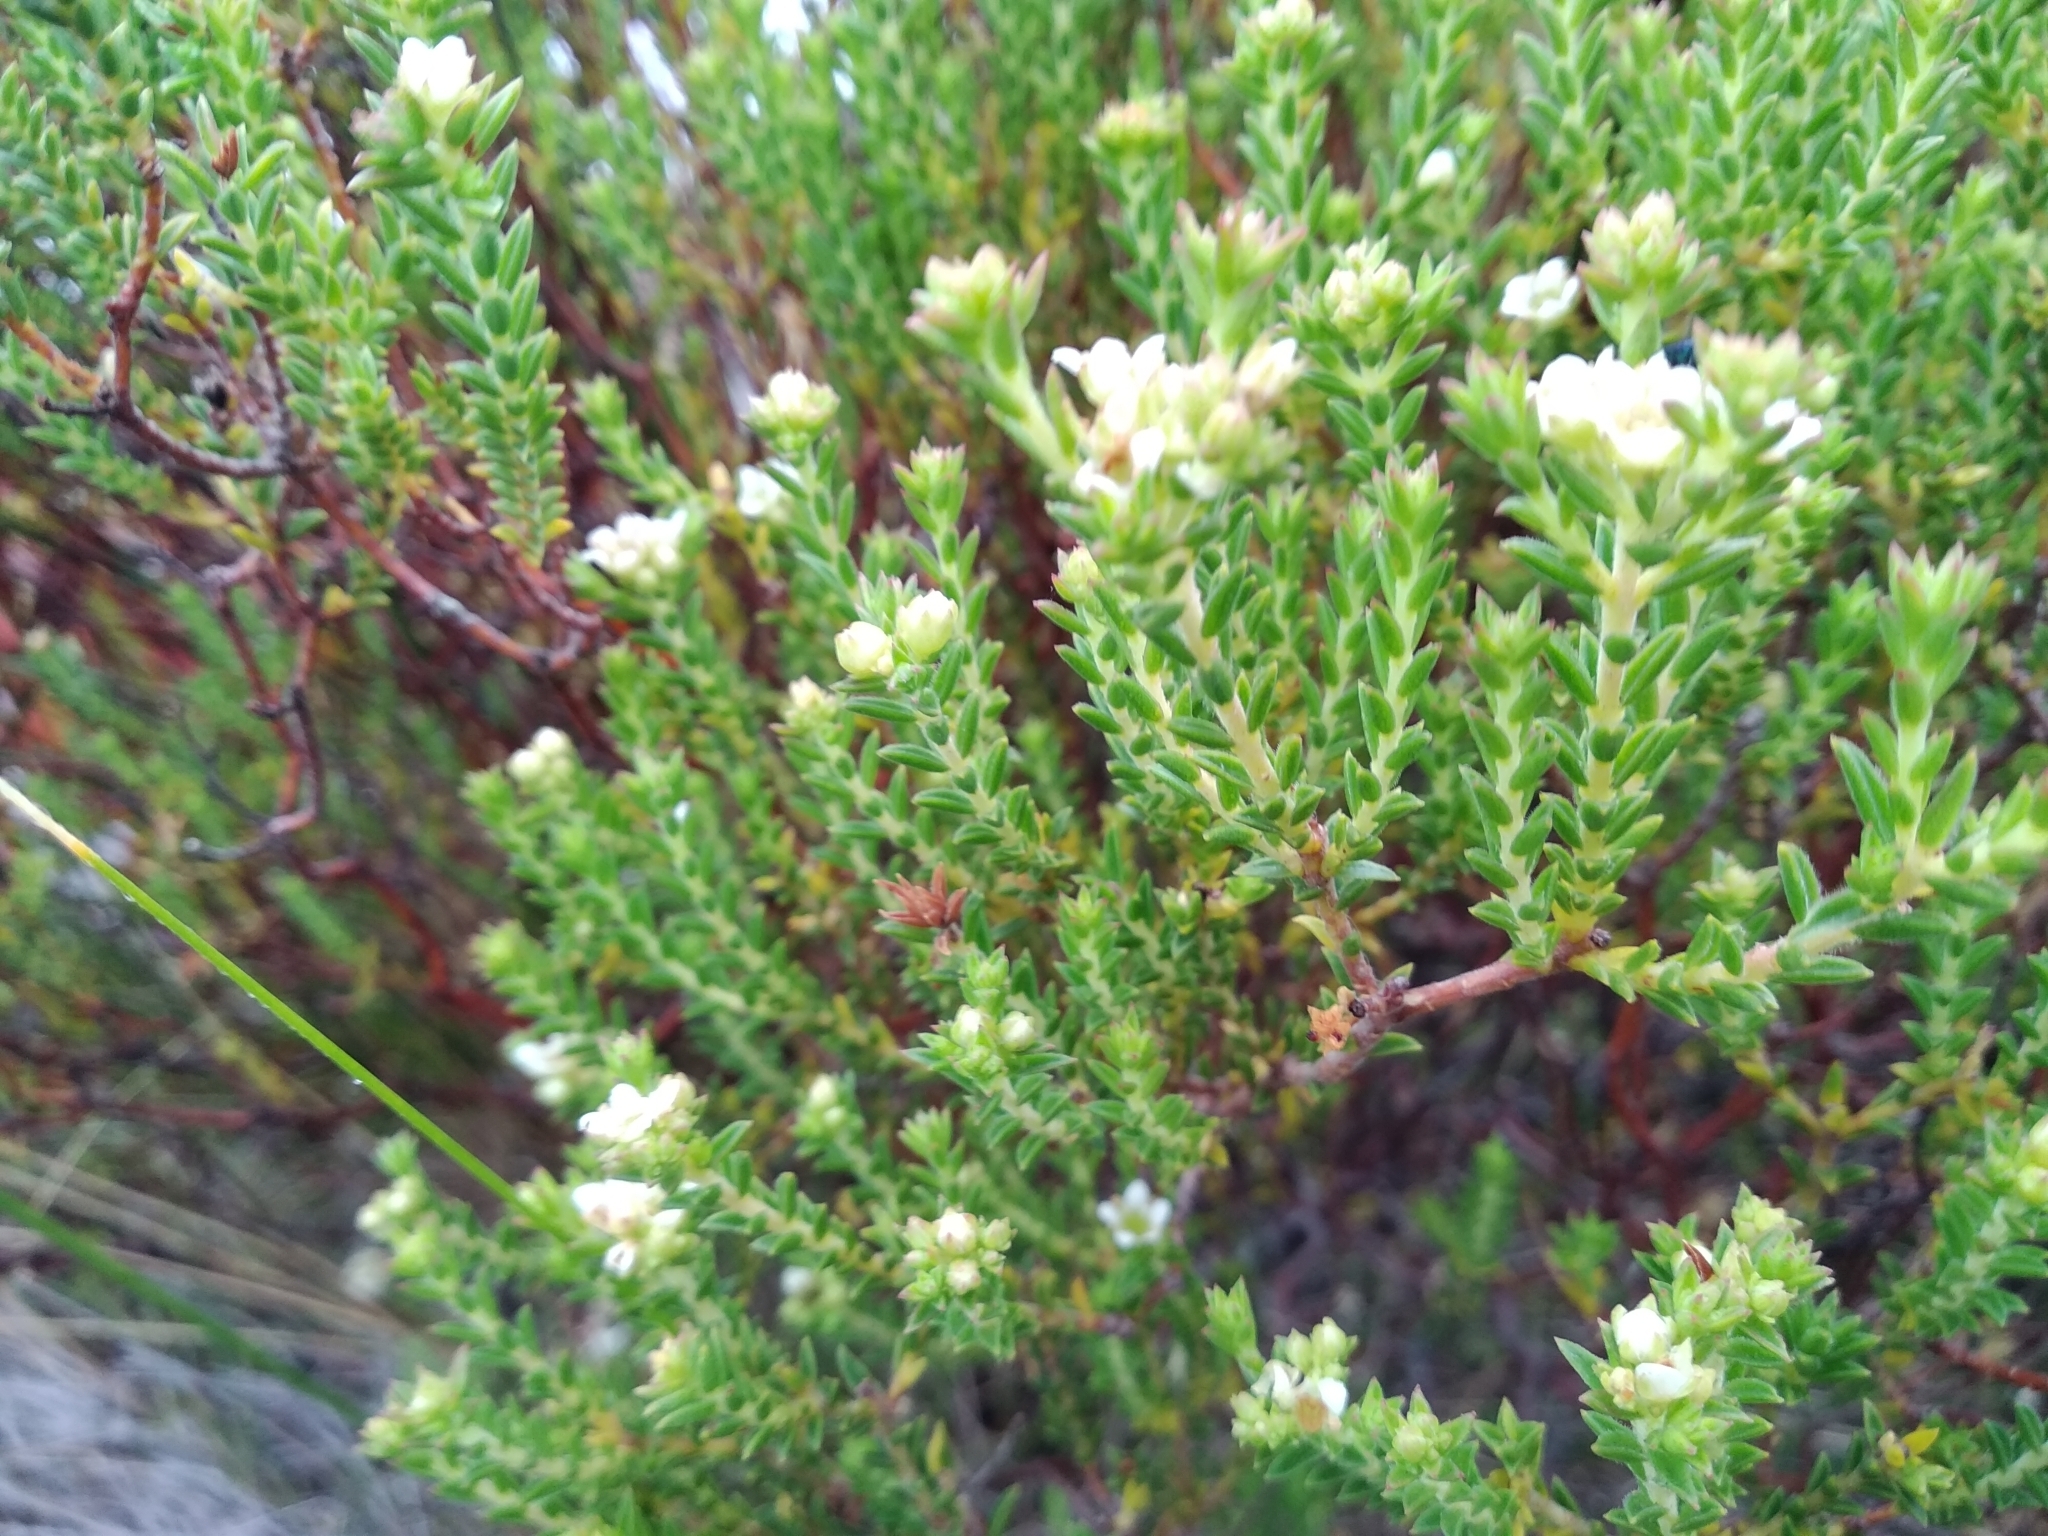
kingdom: Plantae
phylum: Tracheophyta
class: Magnoliopsida
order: Sapindales
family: Rutaceae
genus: Diosma
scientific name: Diosma oppositifolia
